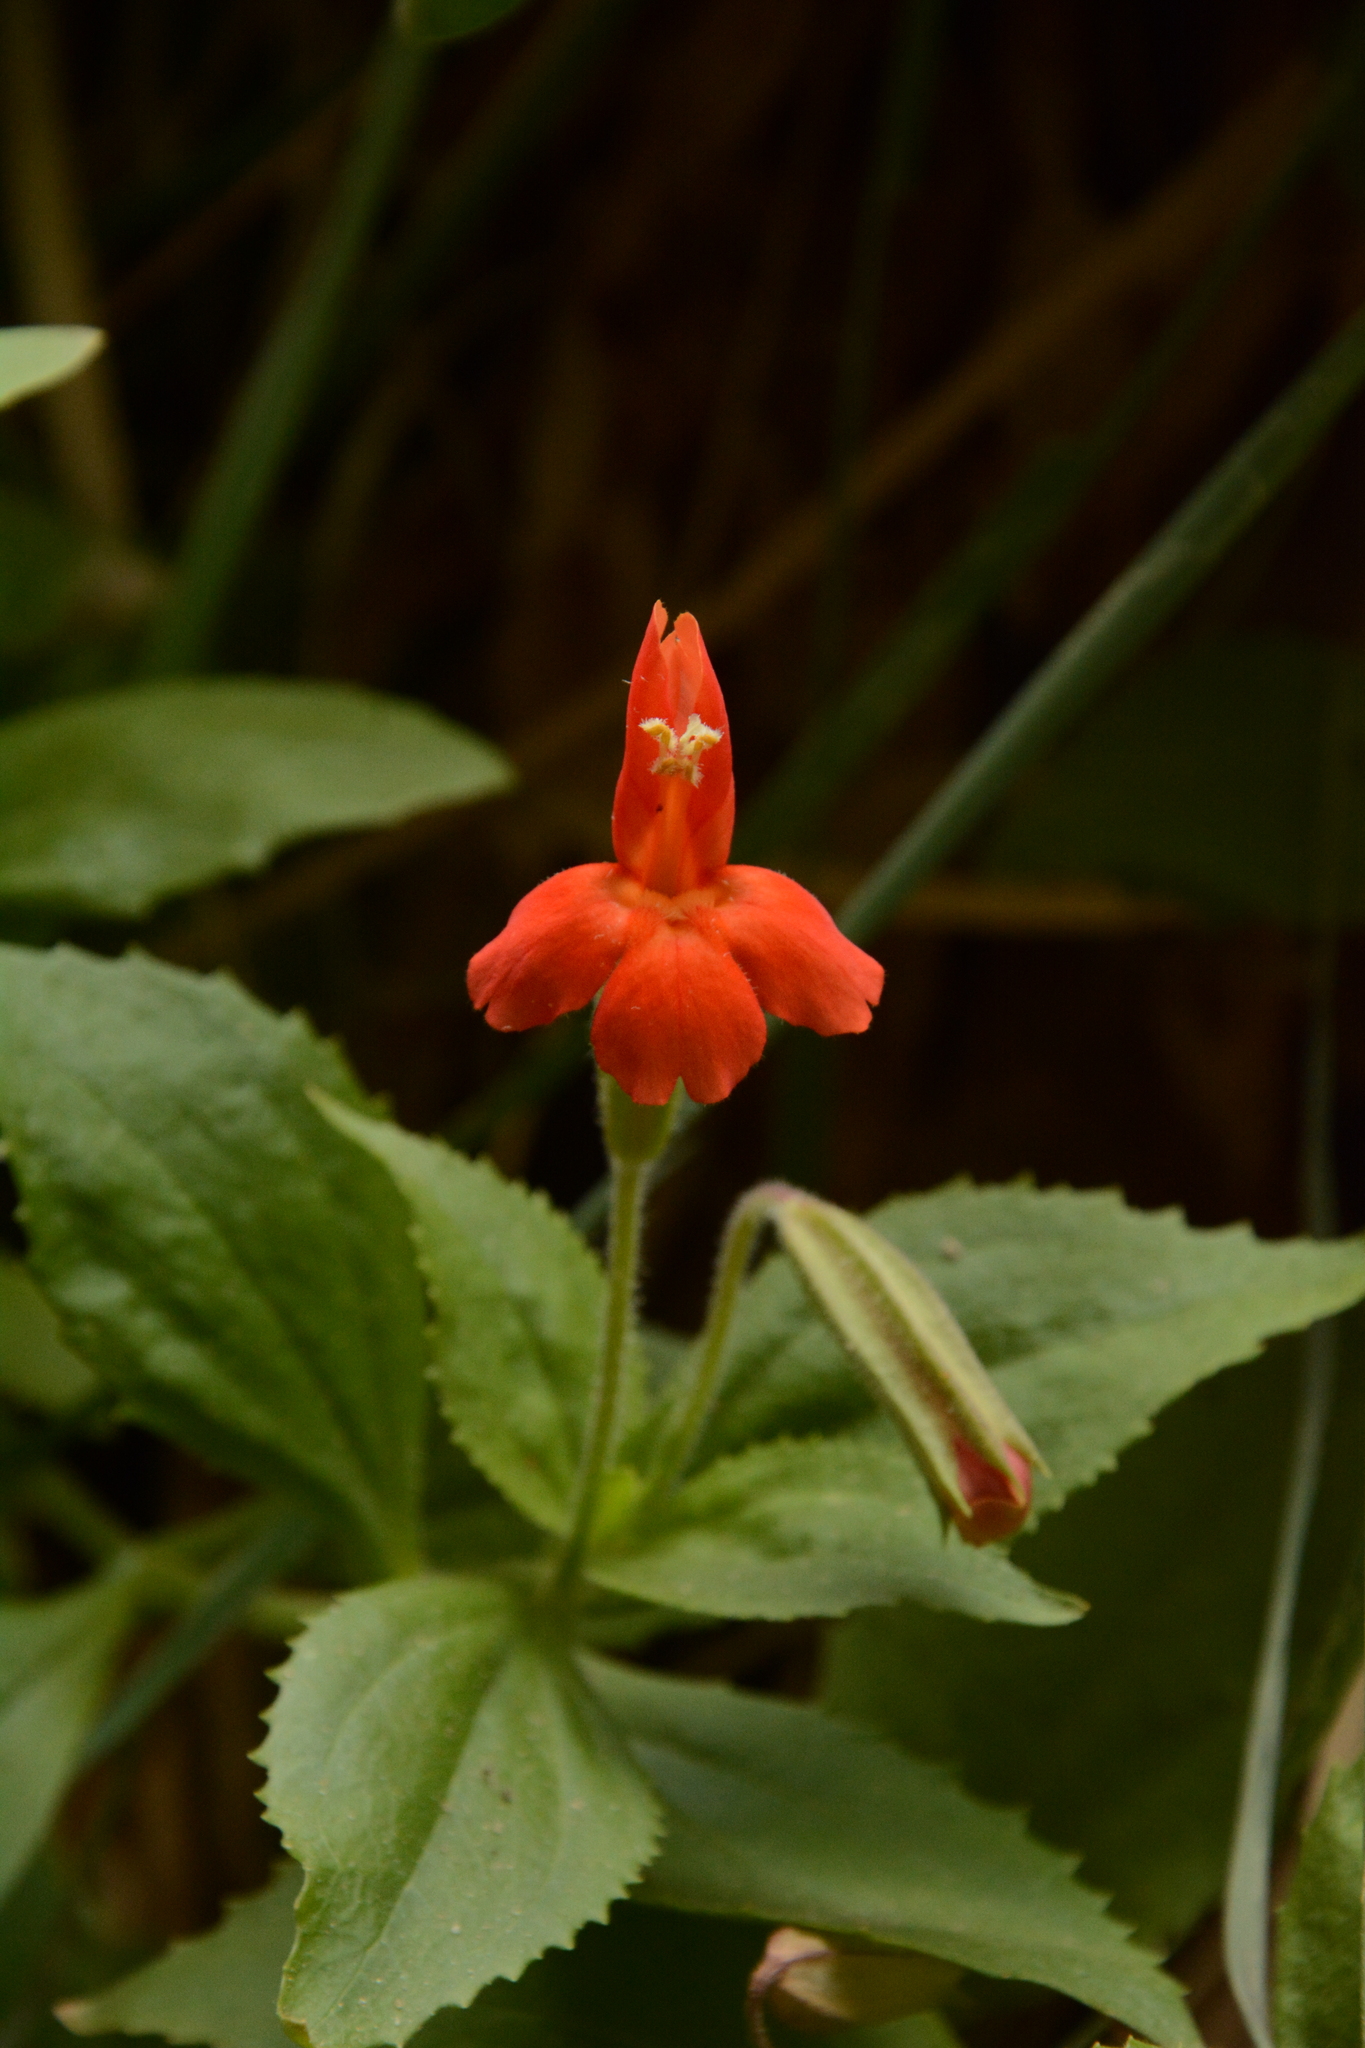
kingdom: Plantae
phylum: Tracheophyta
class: Magnoliopsida
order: Lamiales
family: Phrymaceae
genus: Erythranthe
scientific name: Erythranthe verbenacea
